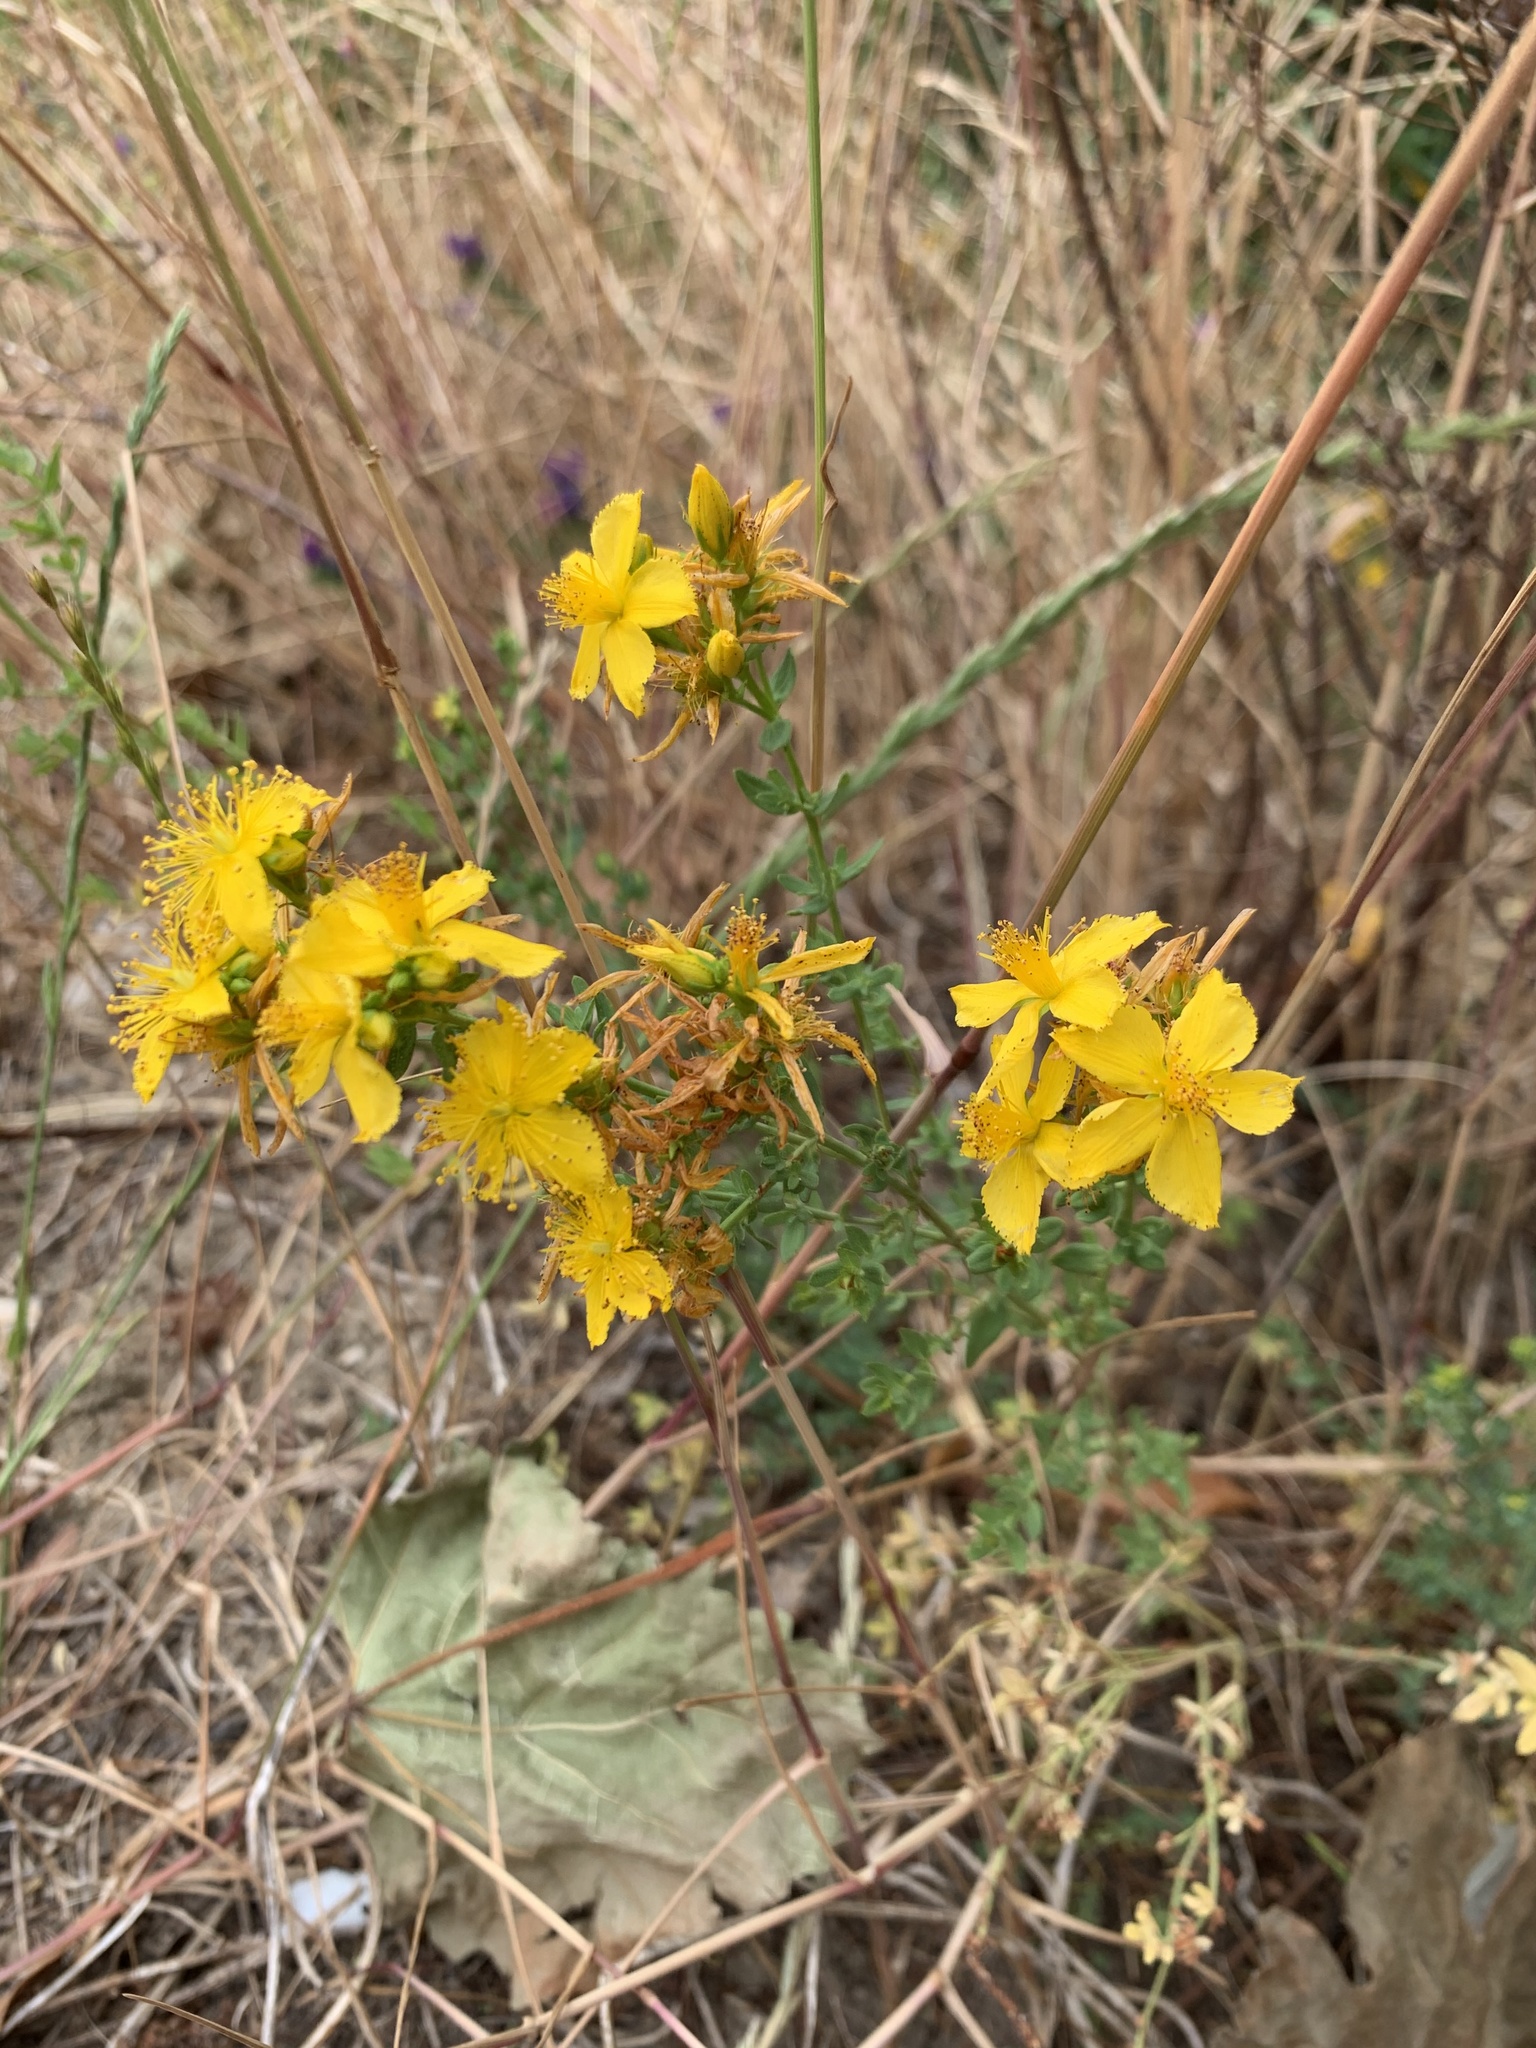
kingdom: Plantae
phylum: Tracheophyta
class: Magnoliopsida
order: Malpighiales
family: Hypericaceae
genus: Hypericum
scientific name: Hypericum perforatum
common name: Common st. johnswort
